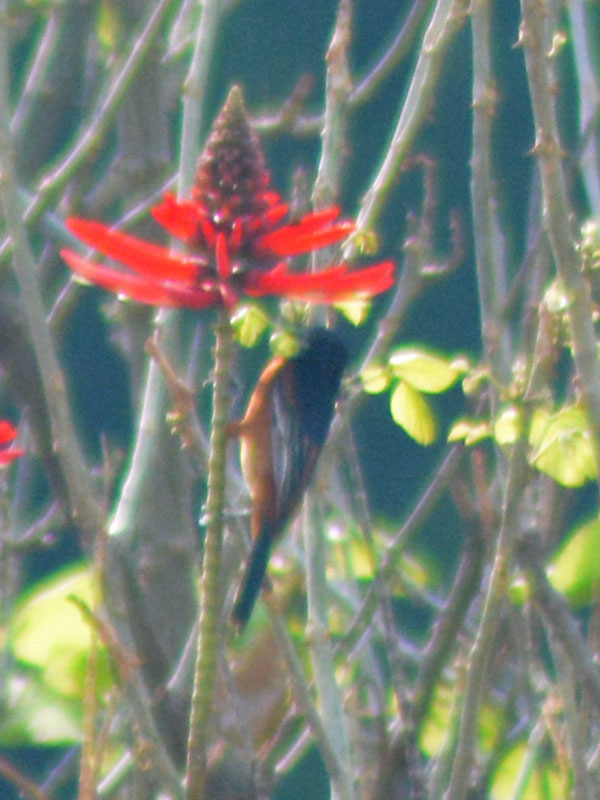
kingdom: Animalia
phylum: Chordata
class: Aves
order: Passeriformes
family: Icteridae
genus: Icterus
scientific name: Icterus spurius
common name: Orchard oriole
